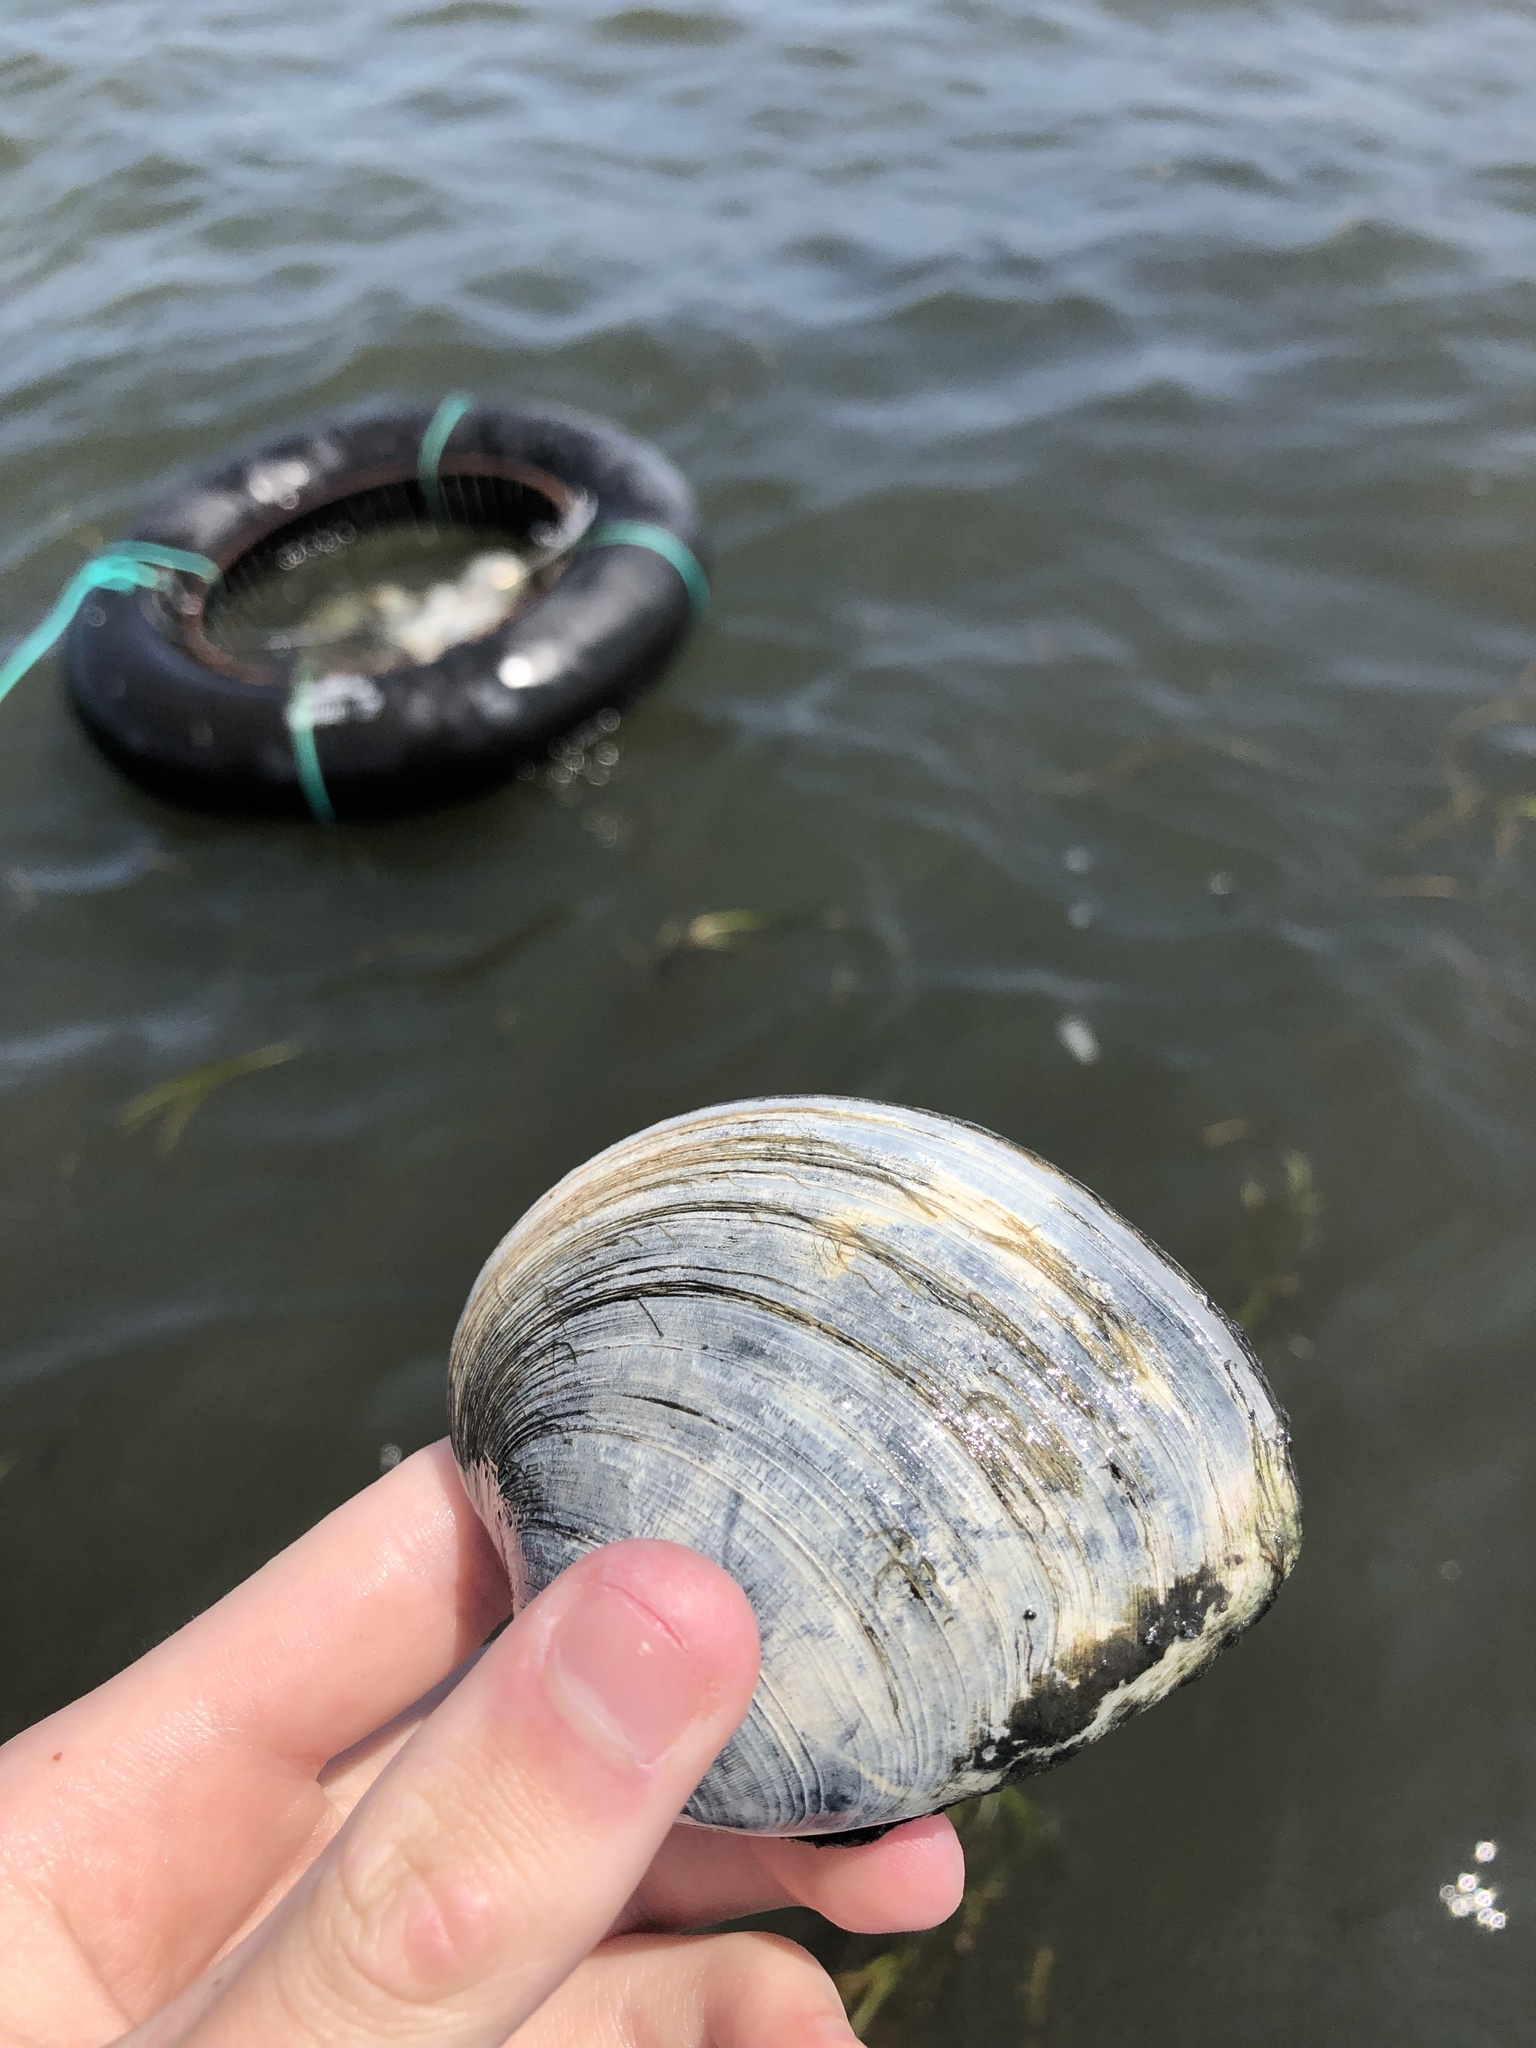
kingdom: Animalia
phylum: Mollusca
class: Bivalvia
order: Venerida
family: Veneridae
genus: Mercenaria
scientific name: Mercenaria mercenaria
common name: American hard-shelled clam
